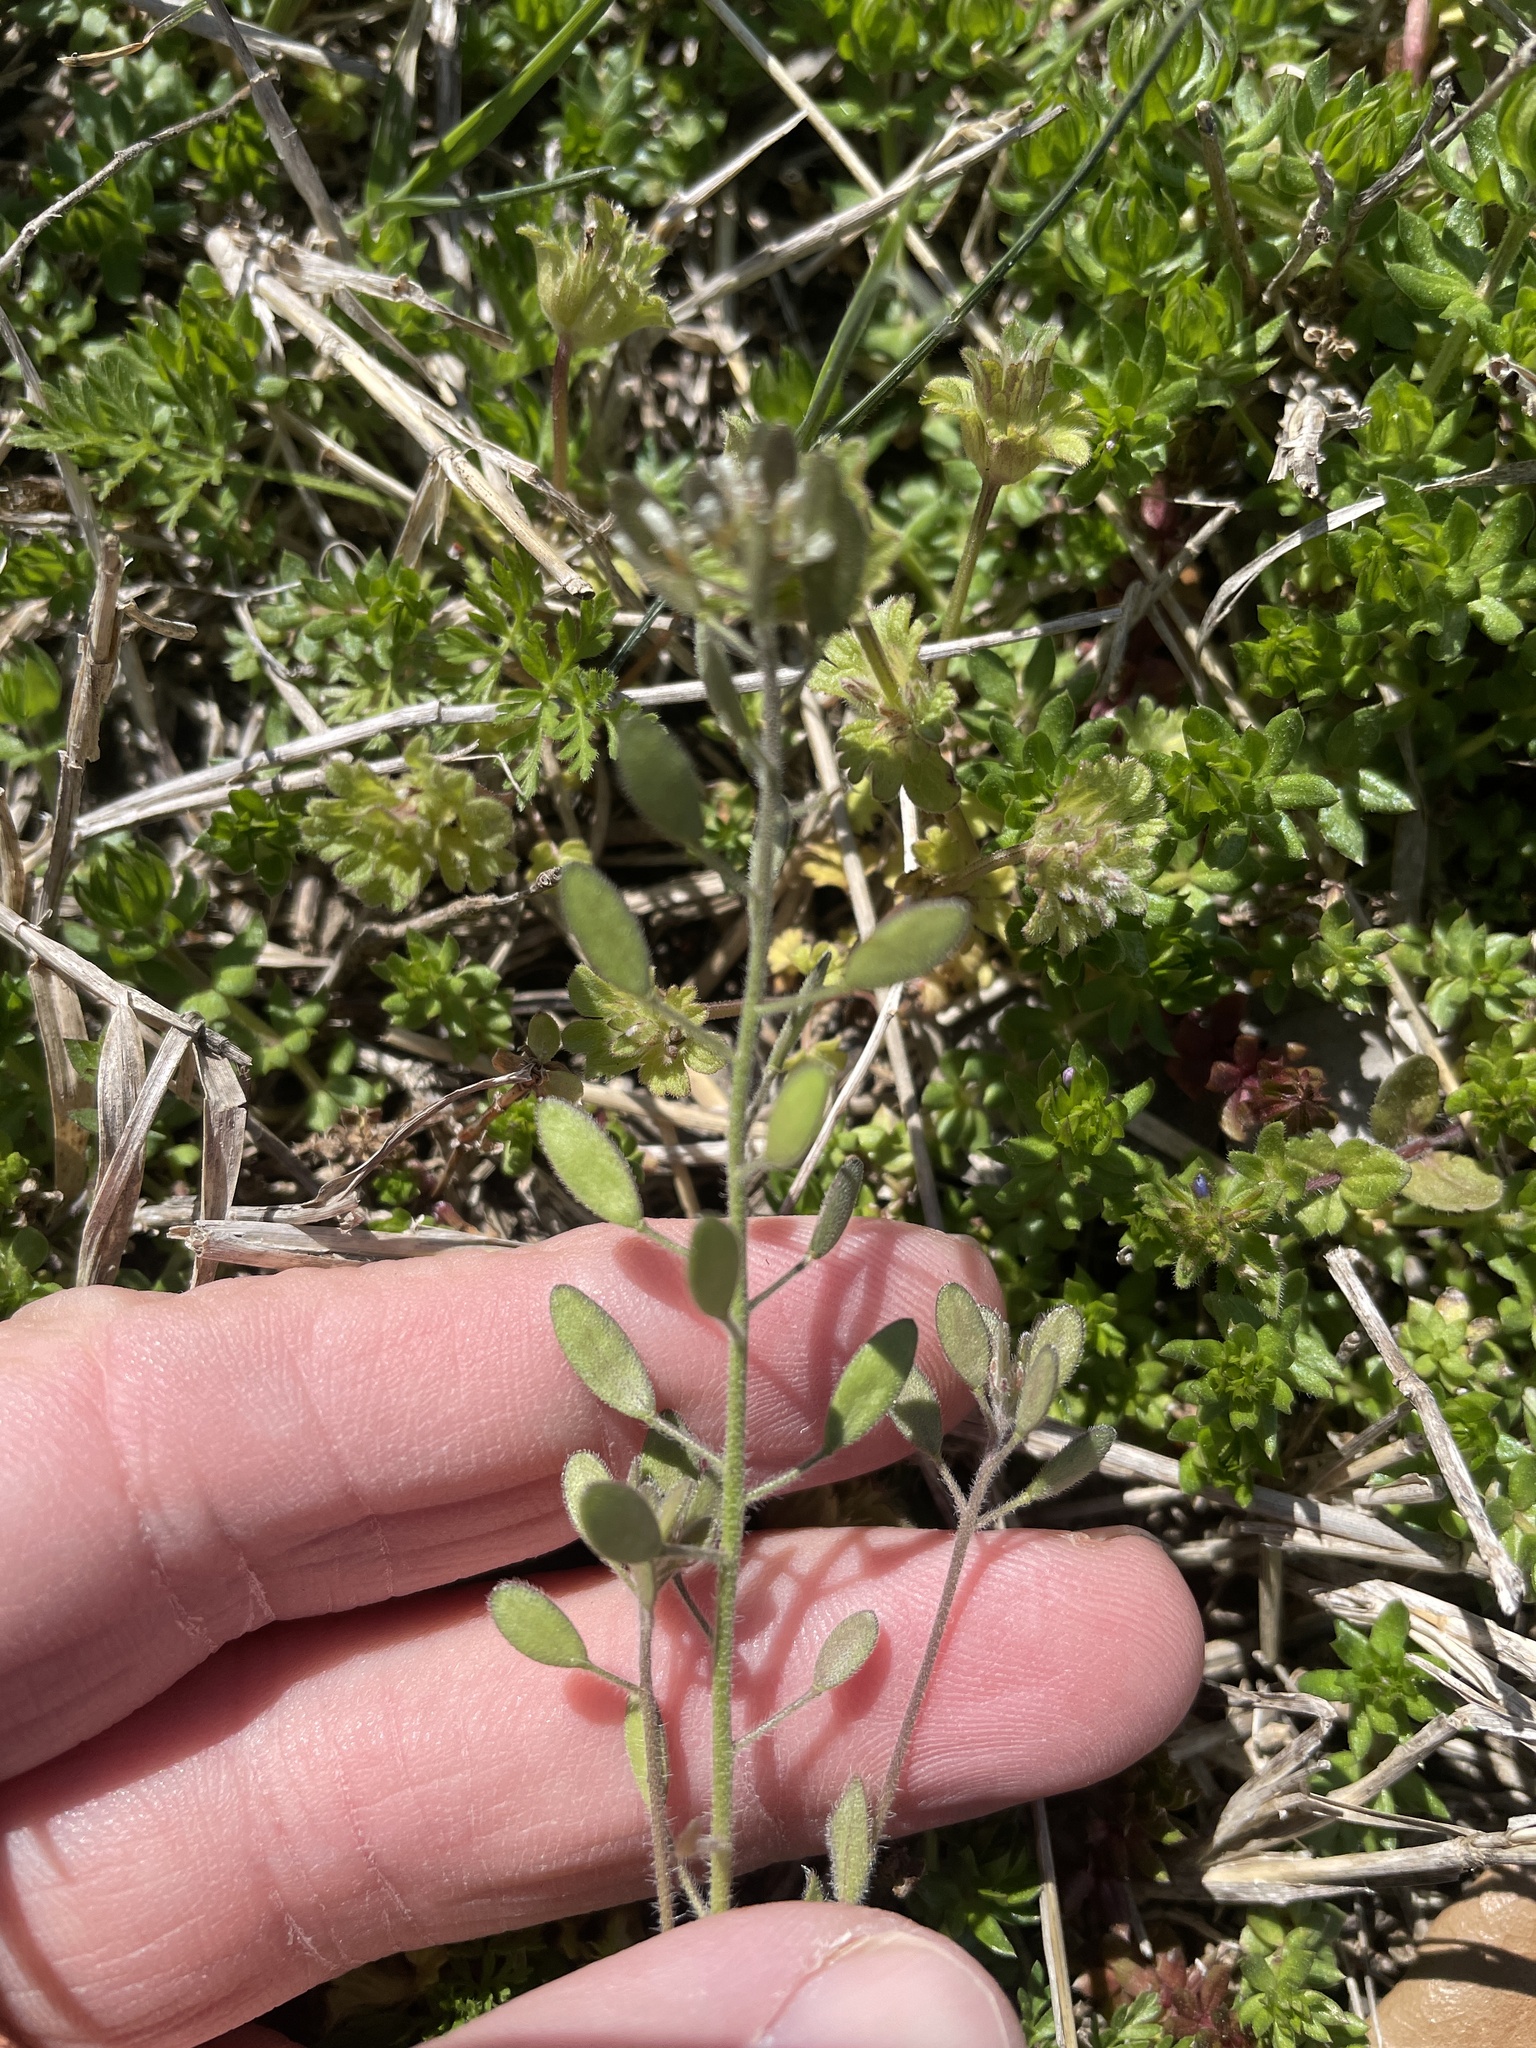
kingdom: Plantae
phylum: Tracheophyta
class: Magnoliopsida
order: Brassicales
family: Brassicaceae
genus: Tomostima
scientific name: Tomostima platycarpa
